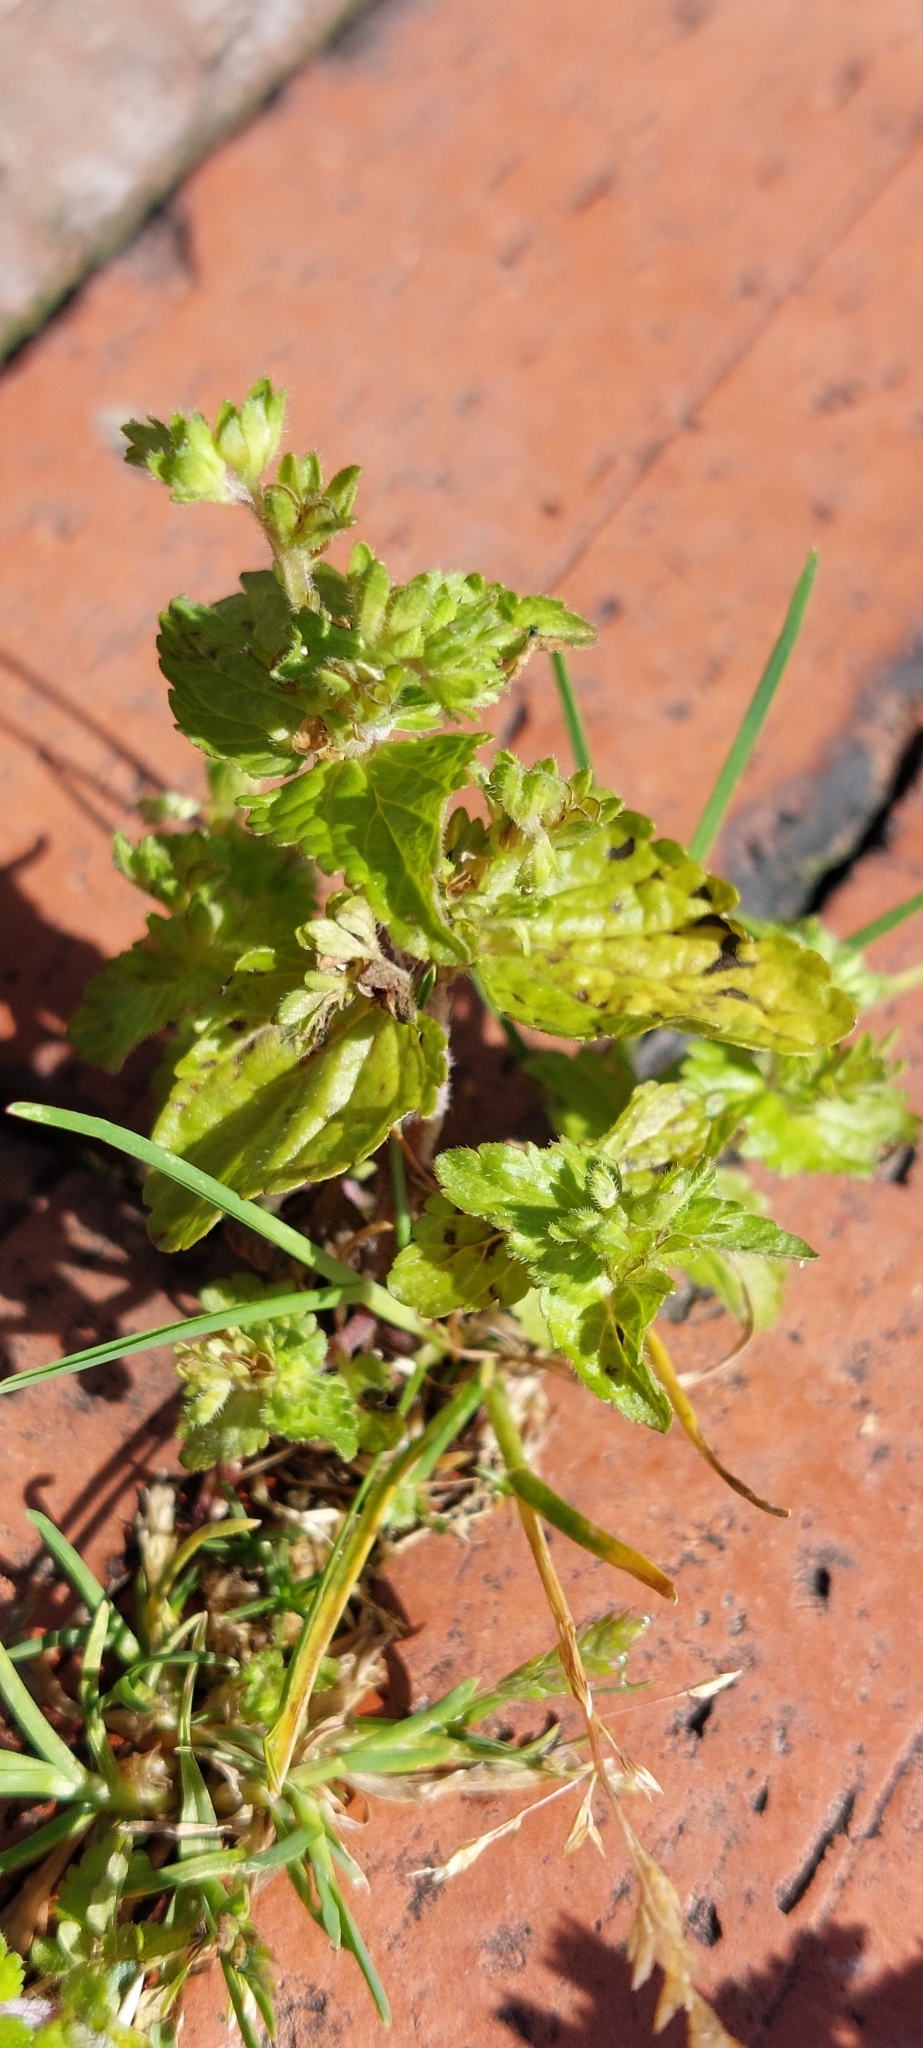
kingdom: Plantae
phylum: Tracheophyta
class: Magnoliopsida
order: Lamiales
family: Plantaginaceae
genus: Veronica
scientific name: Veronica javanica
